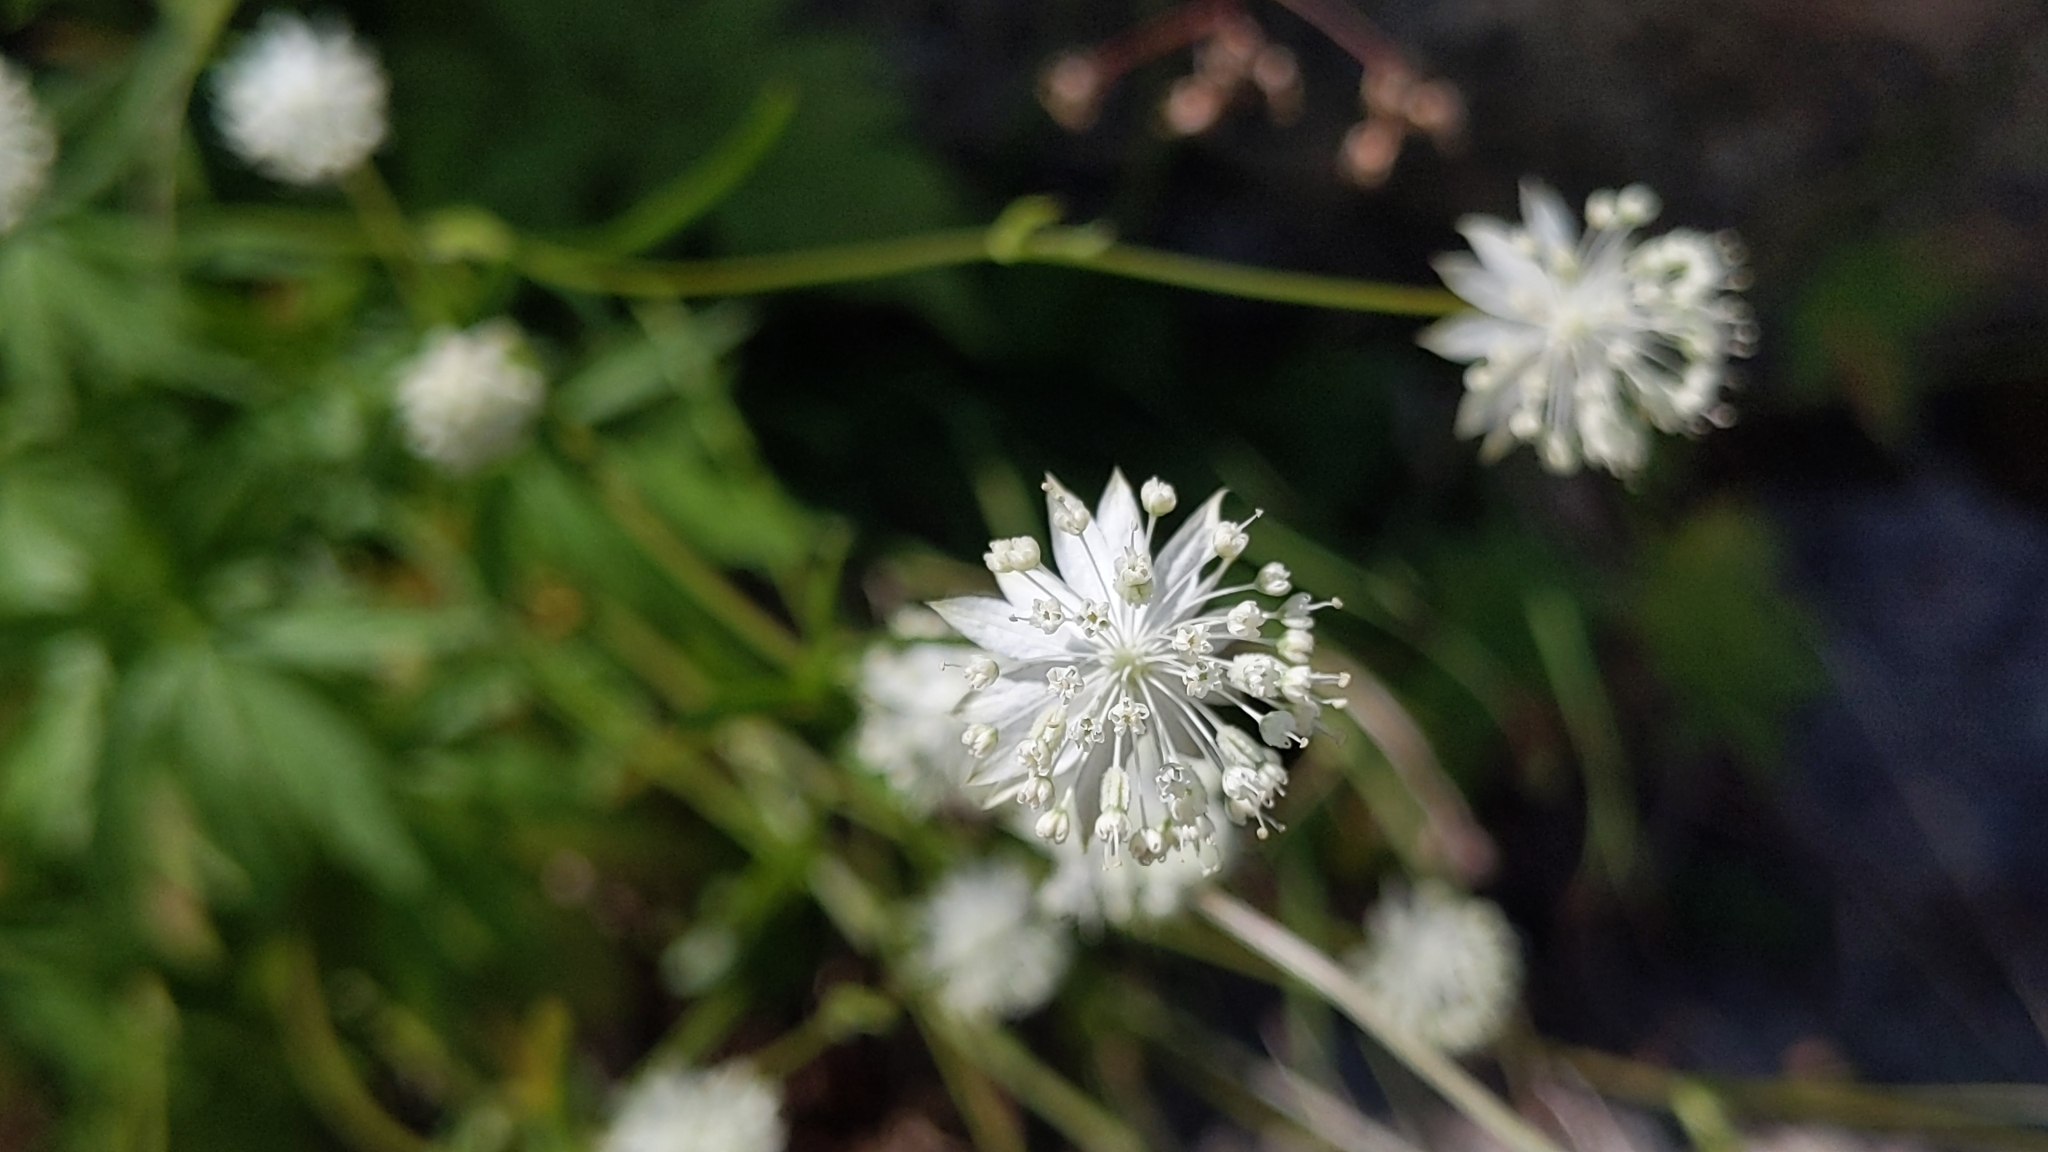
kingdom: Plantae
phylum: Tracheophyta
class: Magnoliopsida
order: Apiales
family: Apiaceae
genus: Astrantia
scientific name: Astrantia minor
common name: Lesser masterwort
